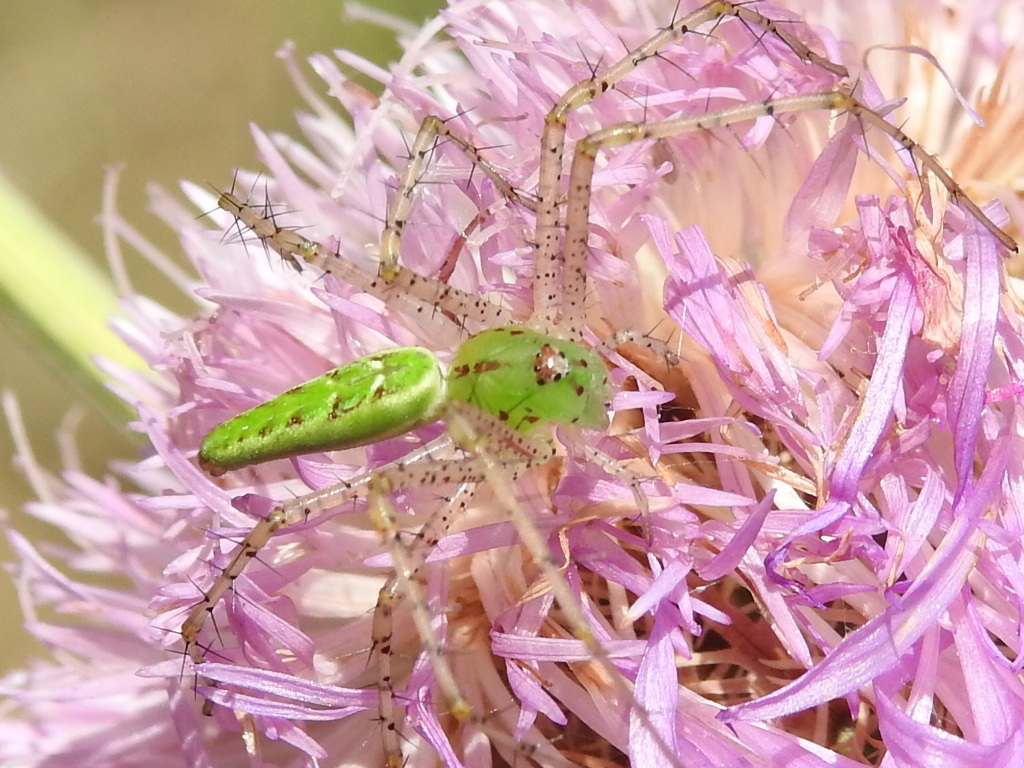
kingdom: Animalia
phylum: Arthropoda
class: Arachnida
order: Araneae
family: Oxyopidae
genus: Peucetia
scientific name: Peucetia viridans
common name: Lynx spiders
